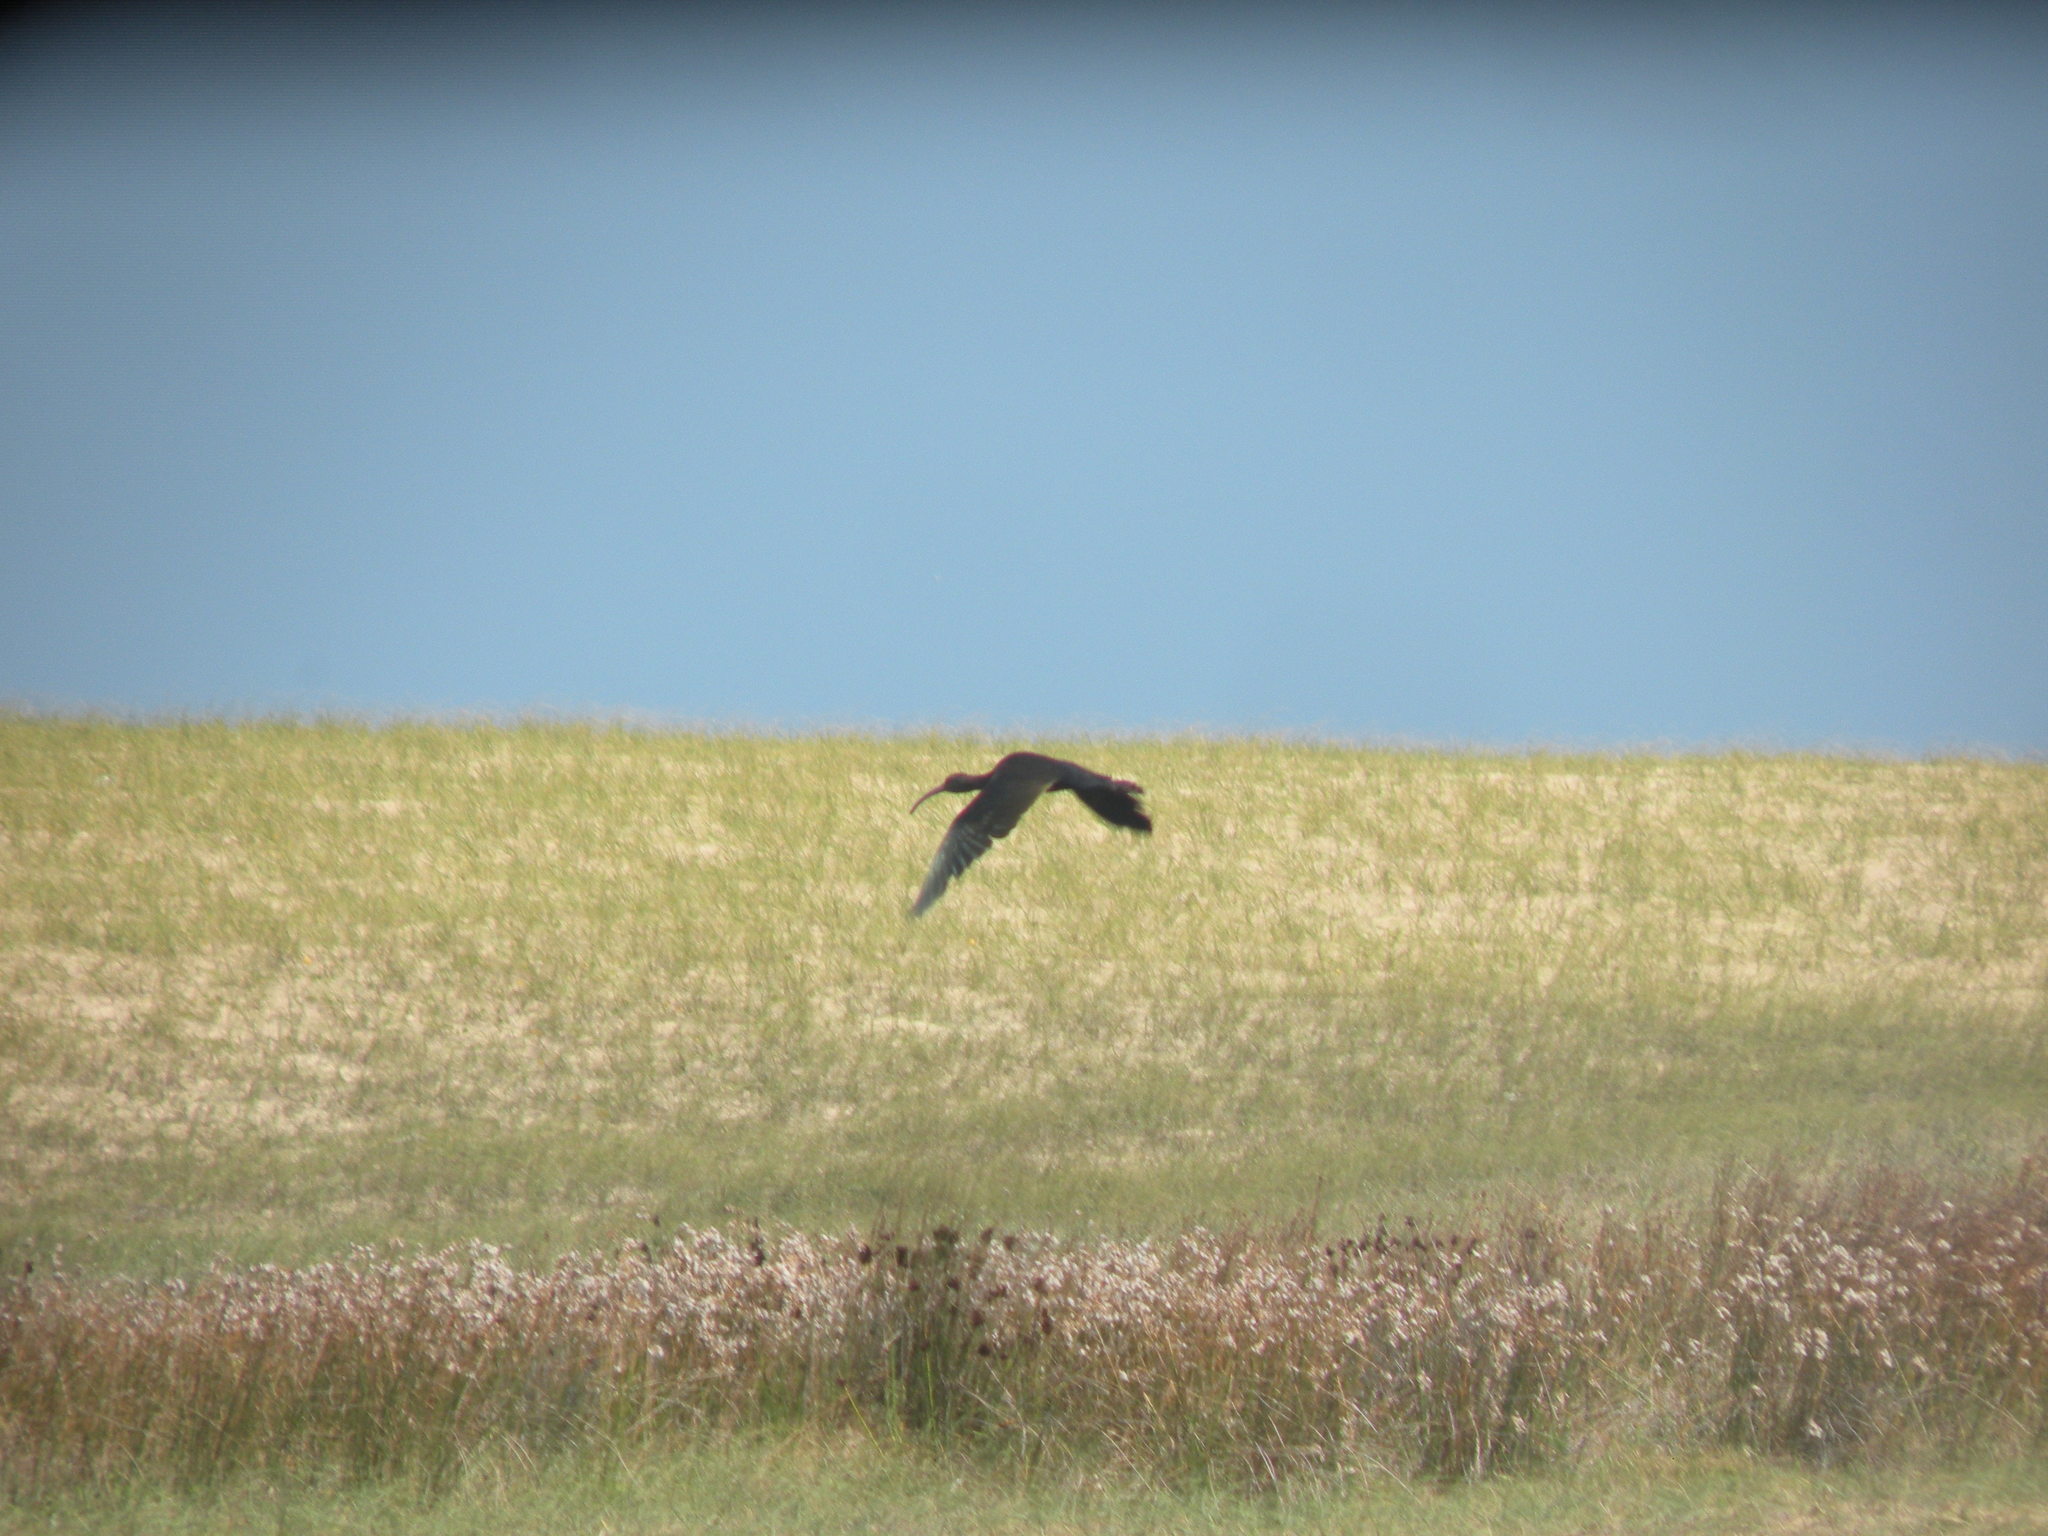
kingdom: Animalia
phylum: Chordata
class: Aves
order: Pelecaniformes
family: Threskiornithidae
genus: Plegadis
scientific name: Plegadis chihi
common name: White-faced ibis
